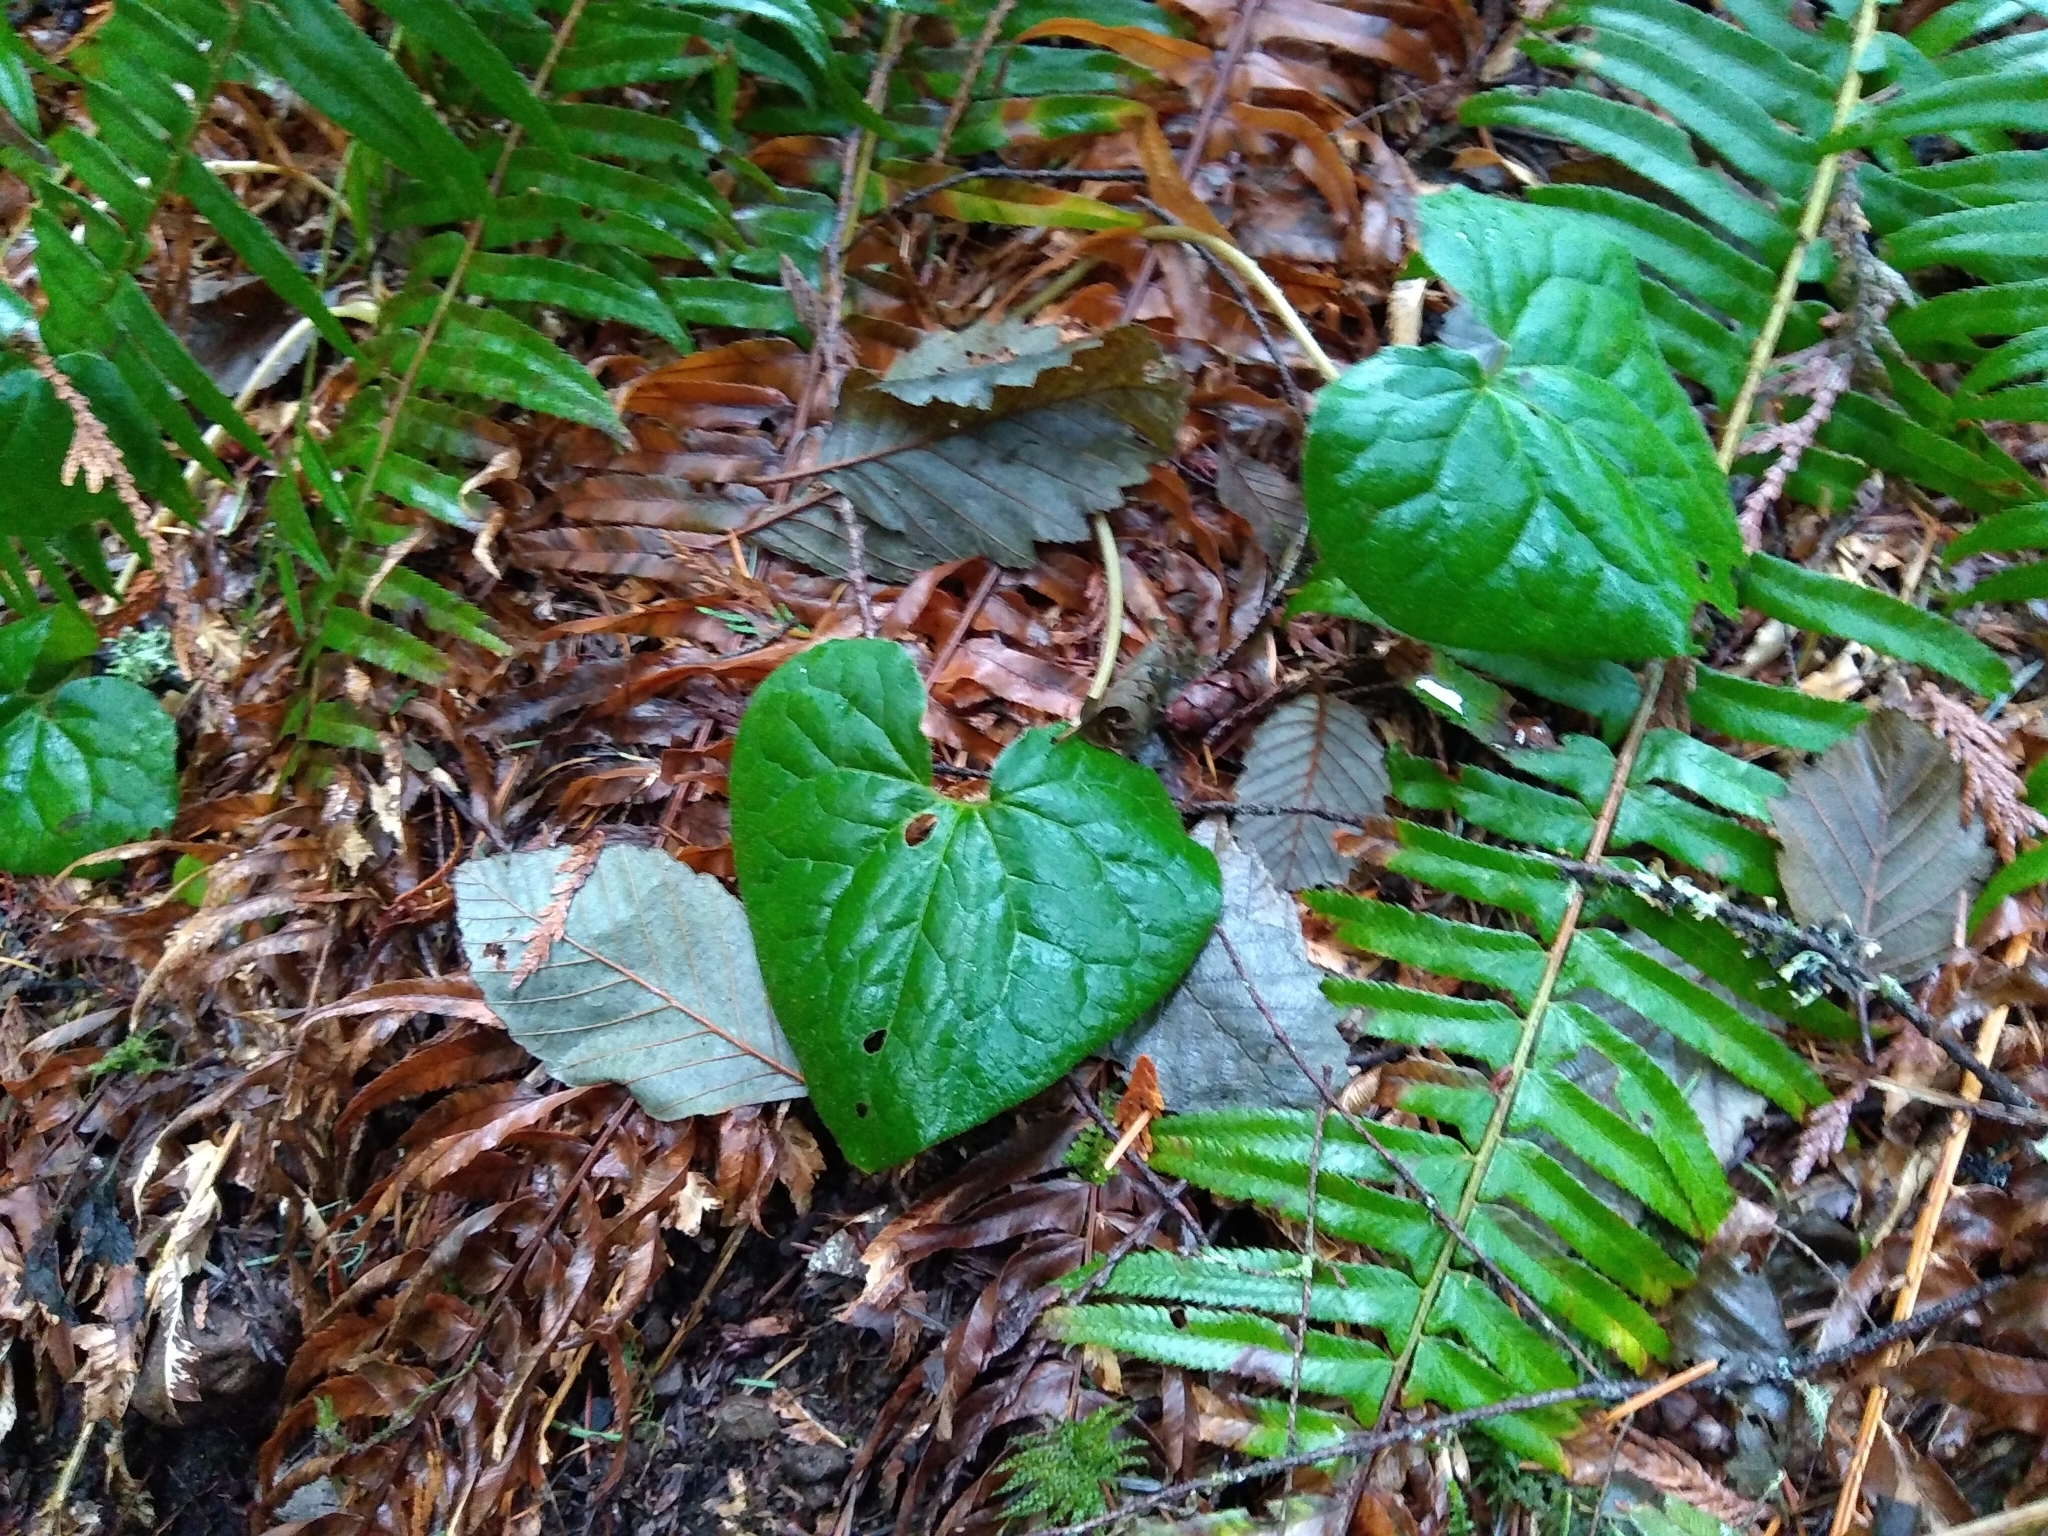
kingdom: Plantae
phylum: Tracheophyta
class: Magnoliopsida
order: Piperales
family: Aristolochiaceae
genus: Asarum
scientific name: Asarum caudatum
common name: Wild ginger
